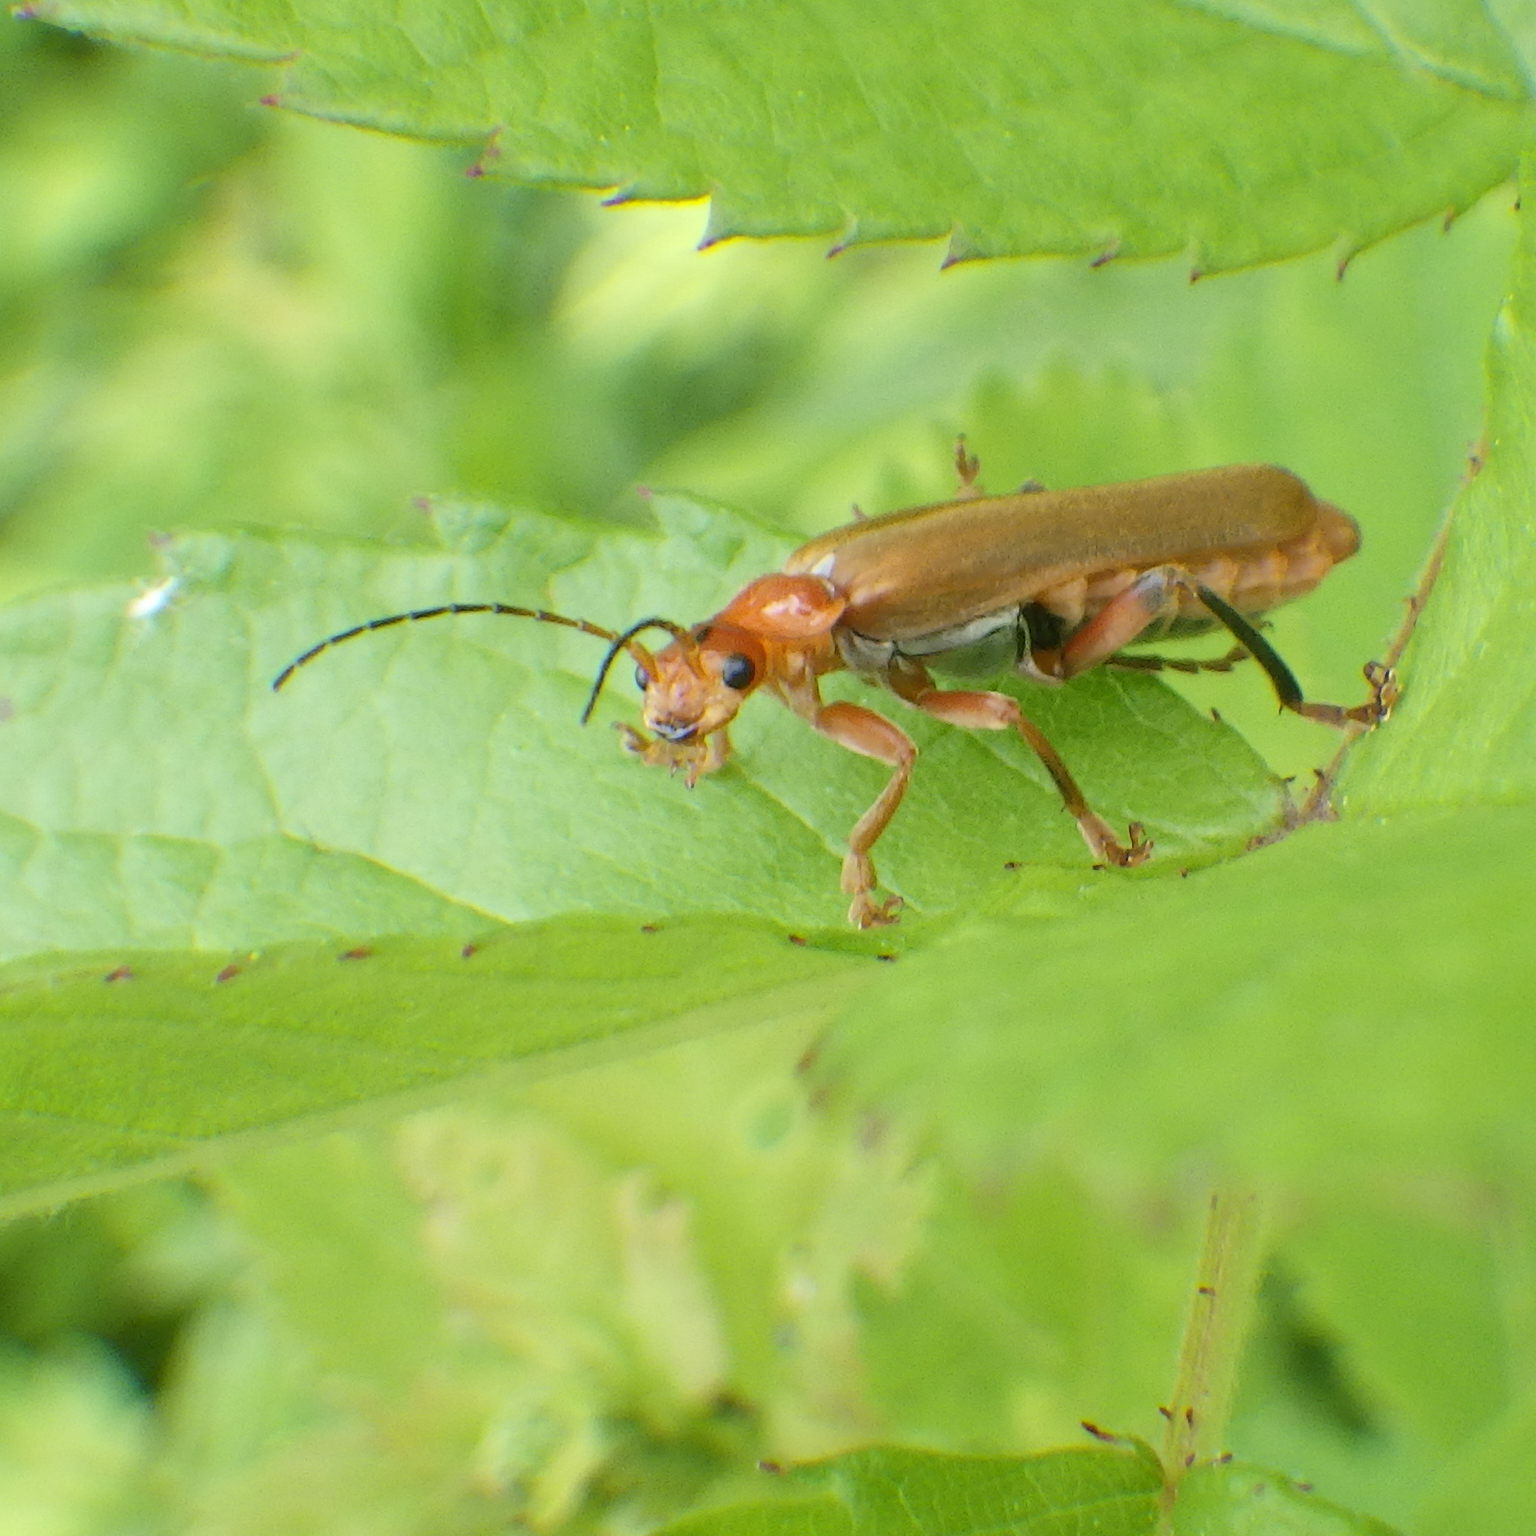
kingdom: Animalia
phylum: Arthropoda
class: Insecta
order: Coleoptera
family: Cantharidae
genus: Cantharis
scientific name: Cantharis livida
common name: Livid soldier beetle
